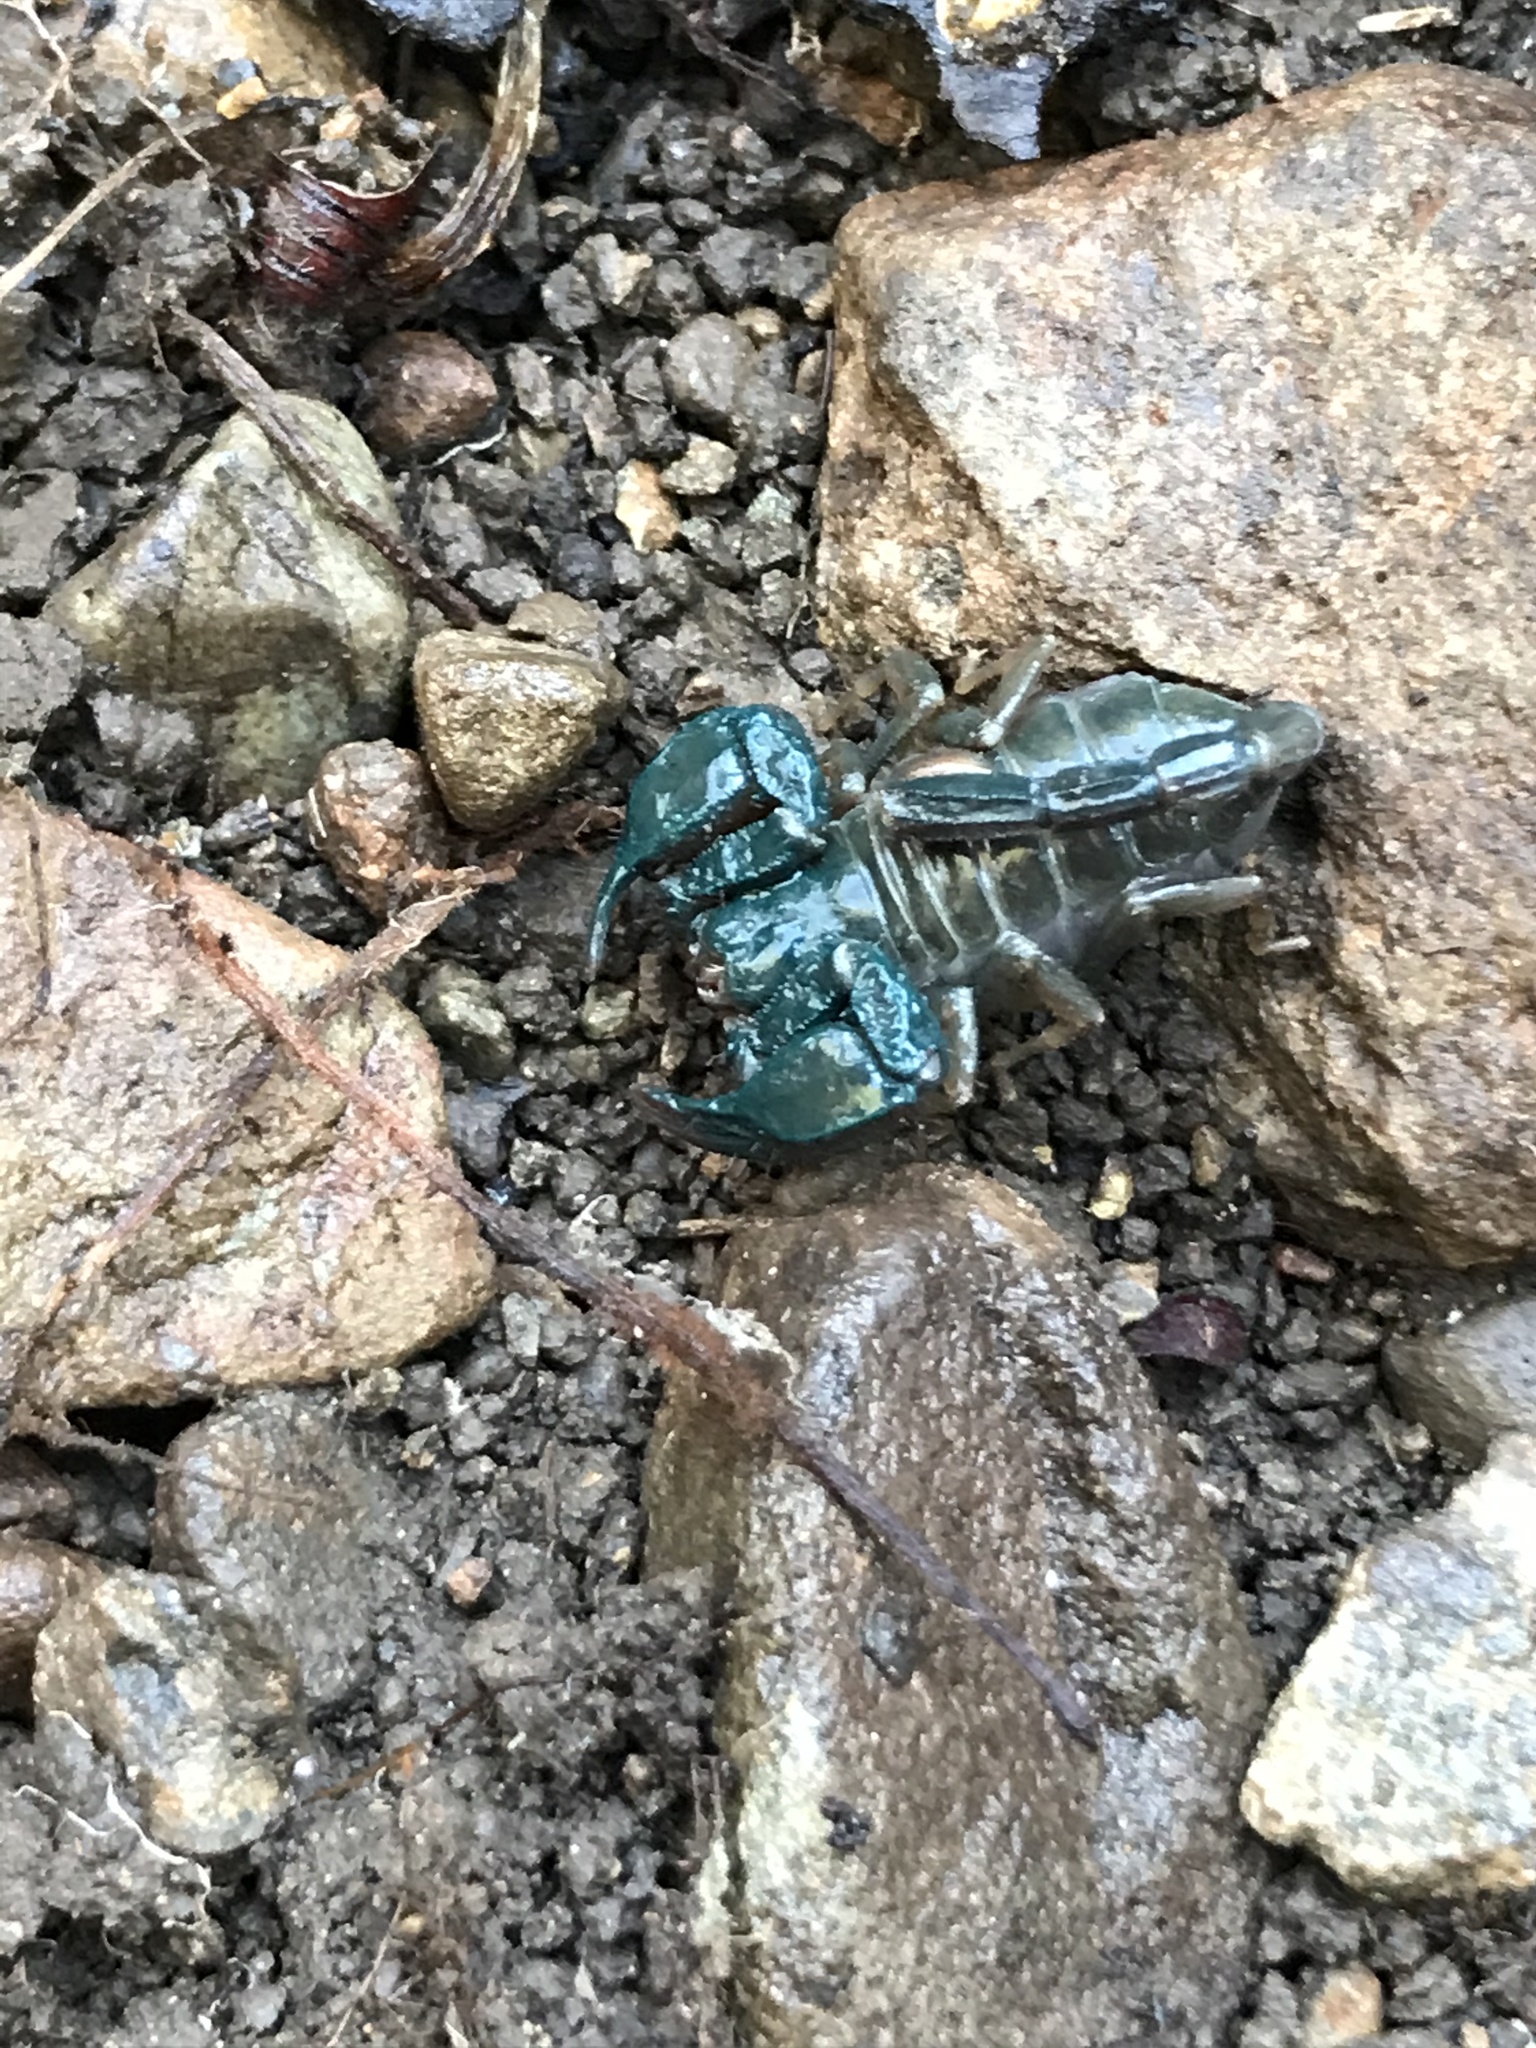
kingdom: Animalia
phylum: Arthropoda
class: Arachnida
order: Scorpiones
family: Chactidae
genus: Uroctonus
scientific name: Uroctonus mordax
